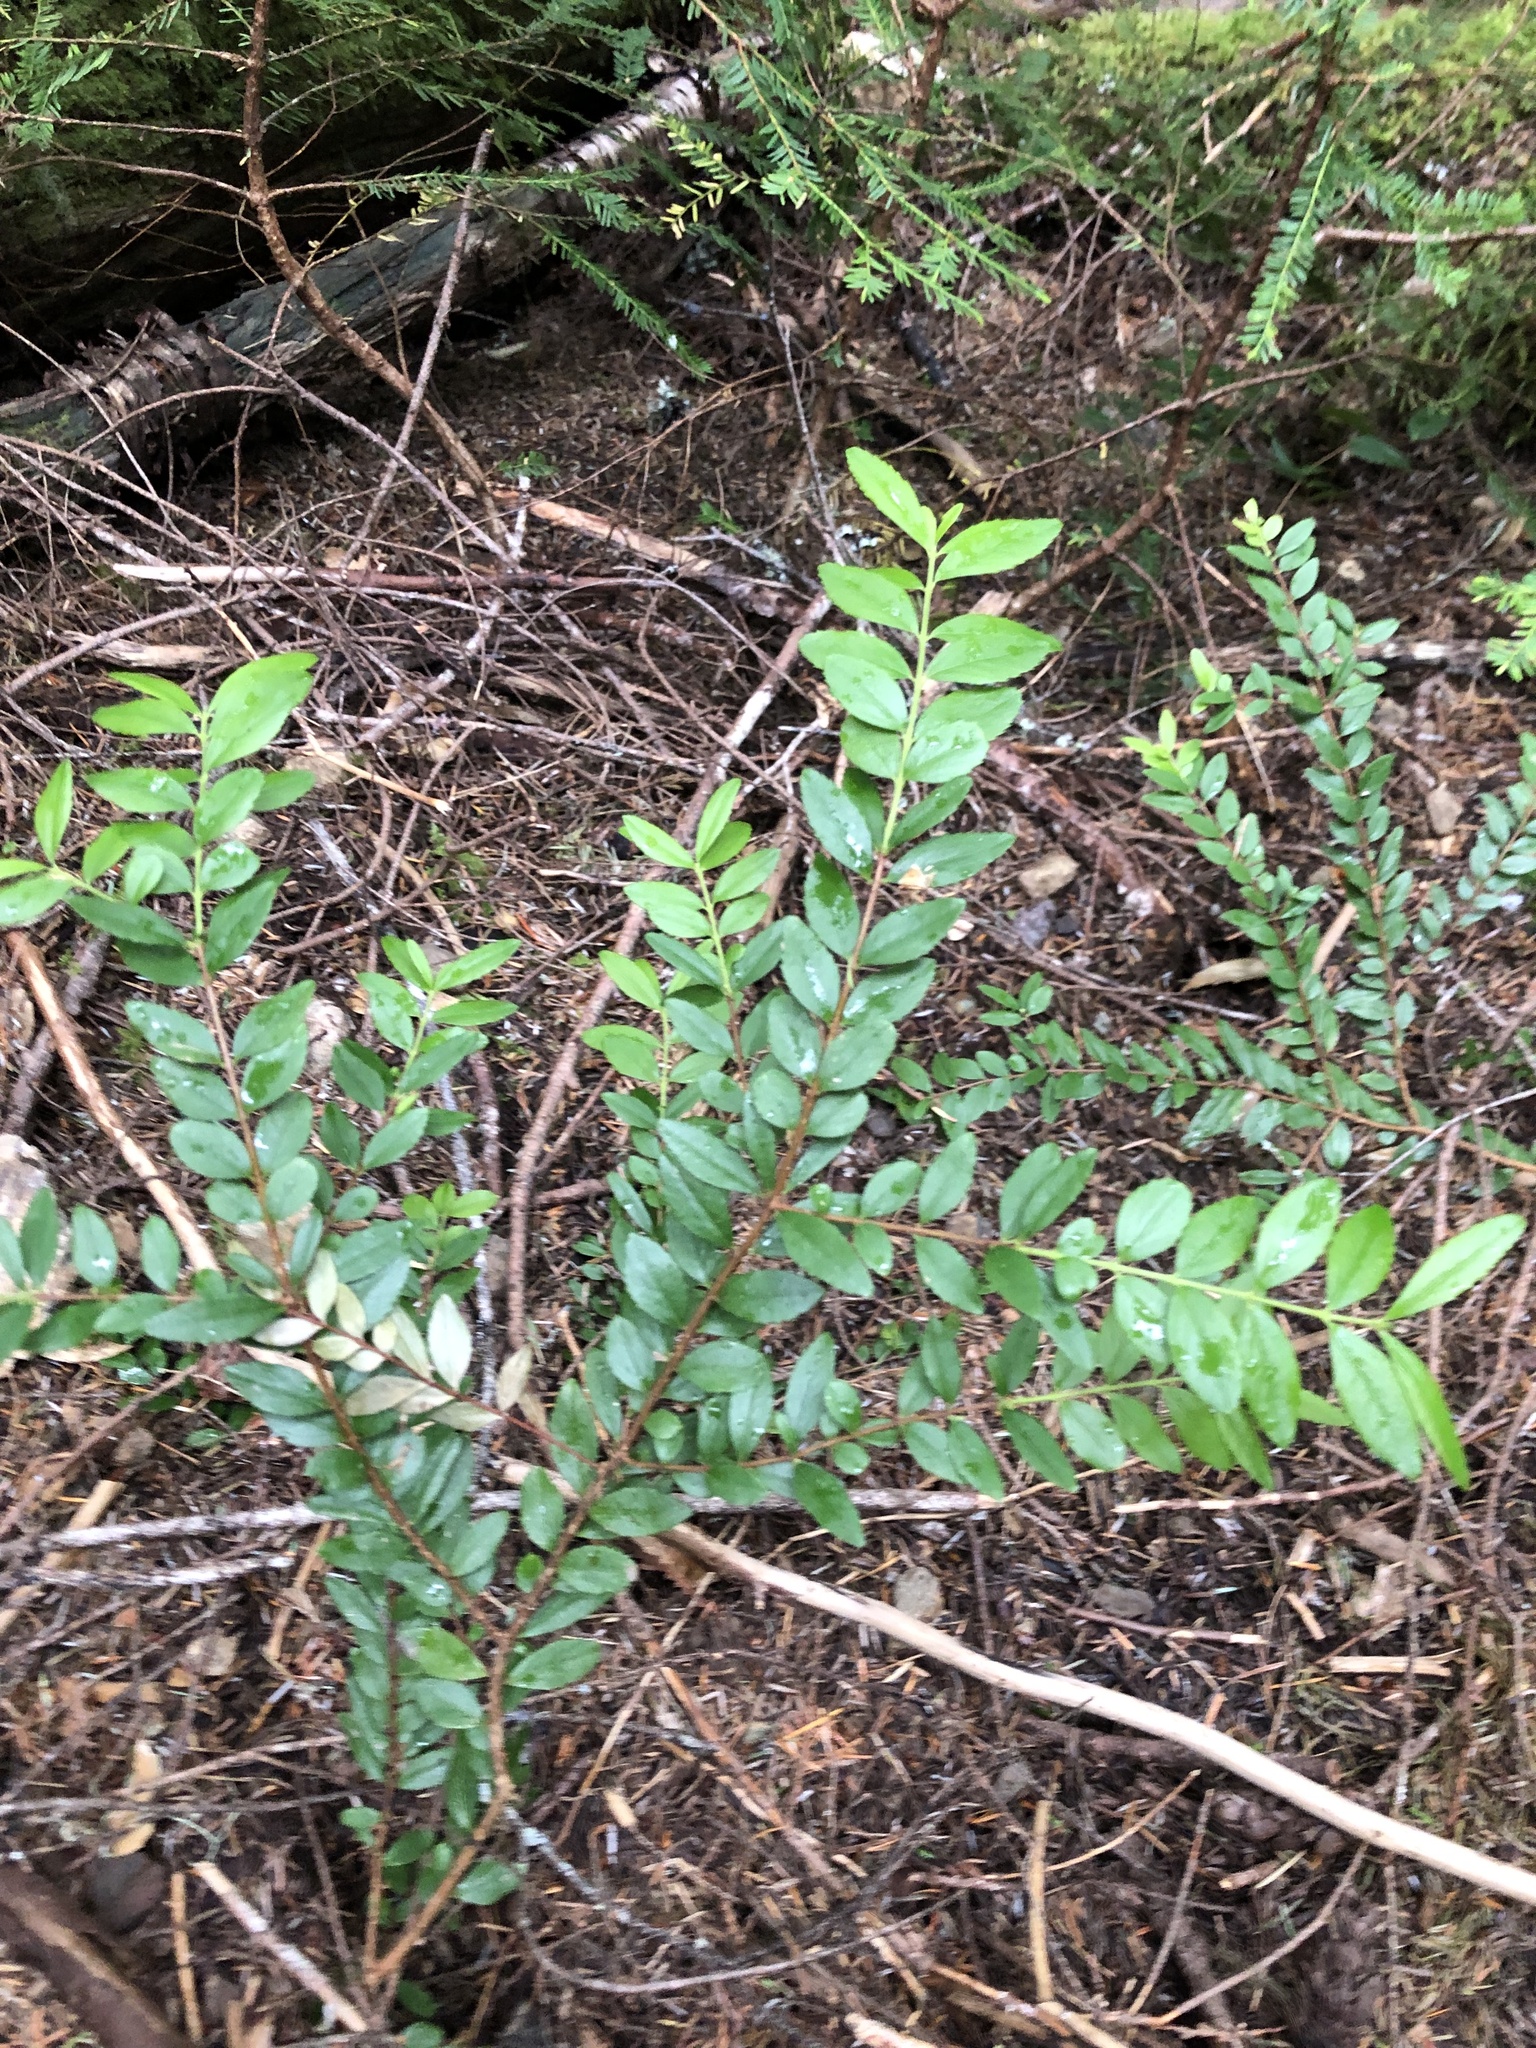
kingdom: Plantae
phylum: Tracheophyta
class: Magnoliopsida
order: Celastrales
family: Celastraceae
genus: Paxistima
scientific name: Paxistima myrsinites
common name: Mountain-lover
